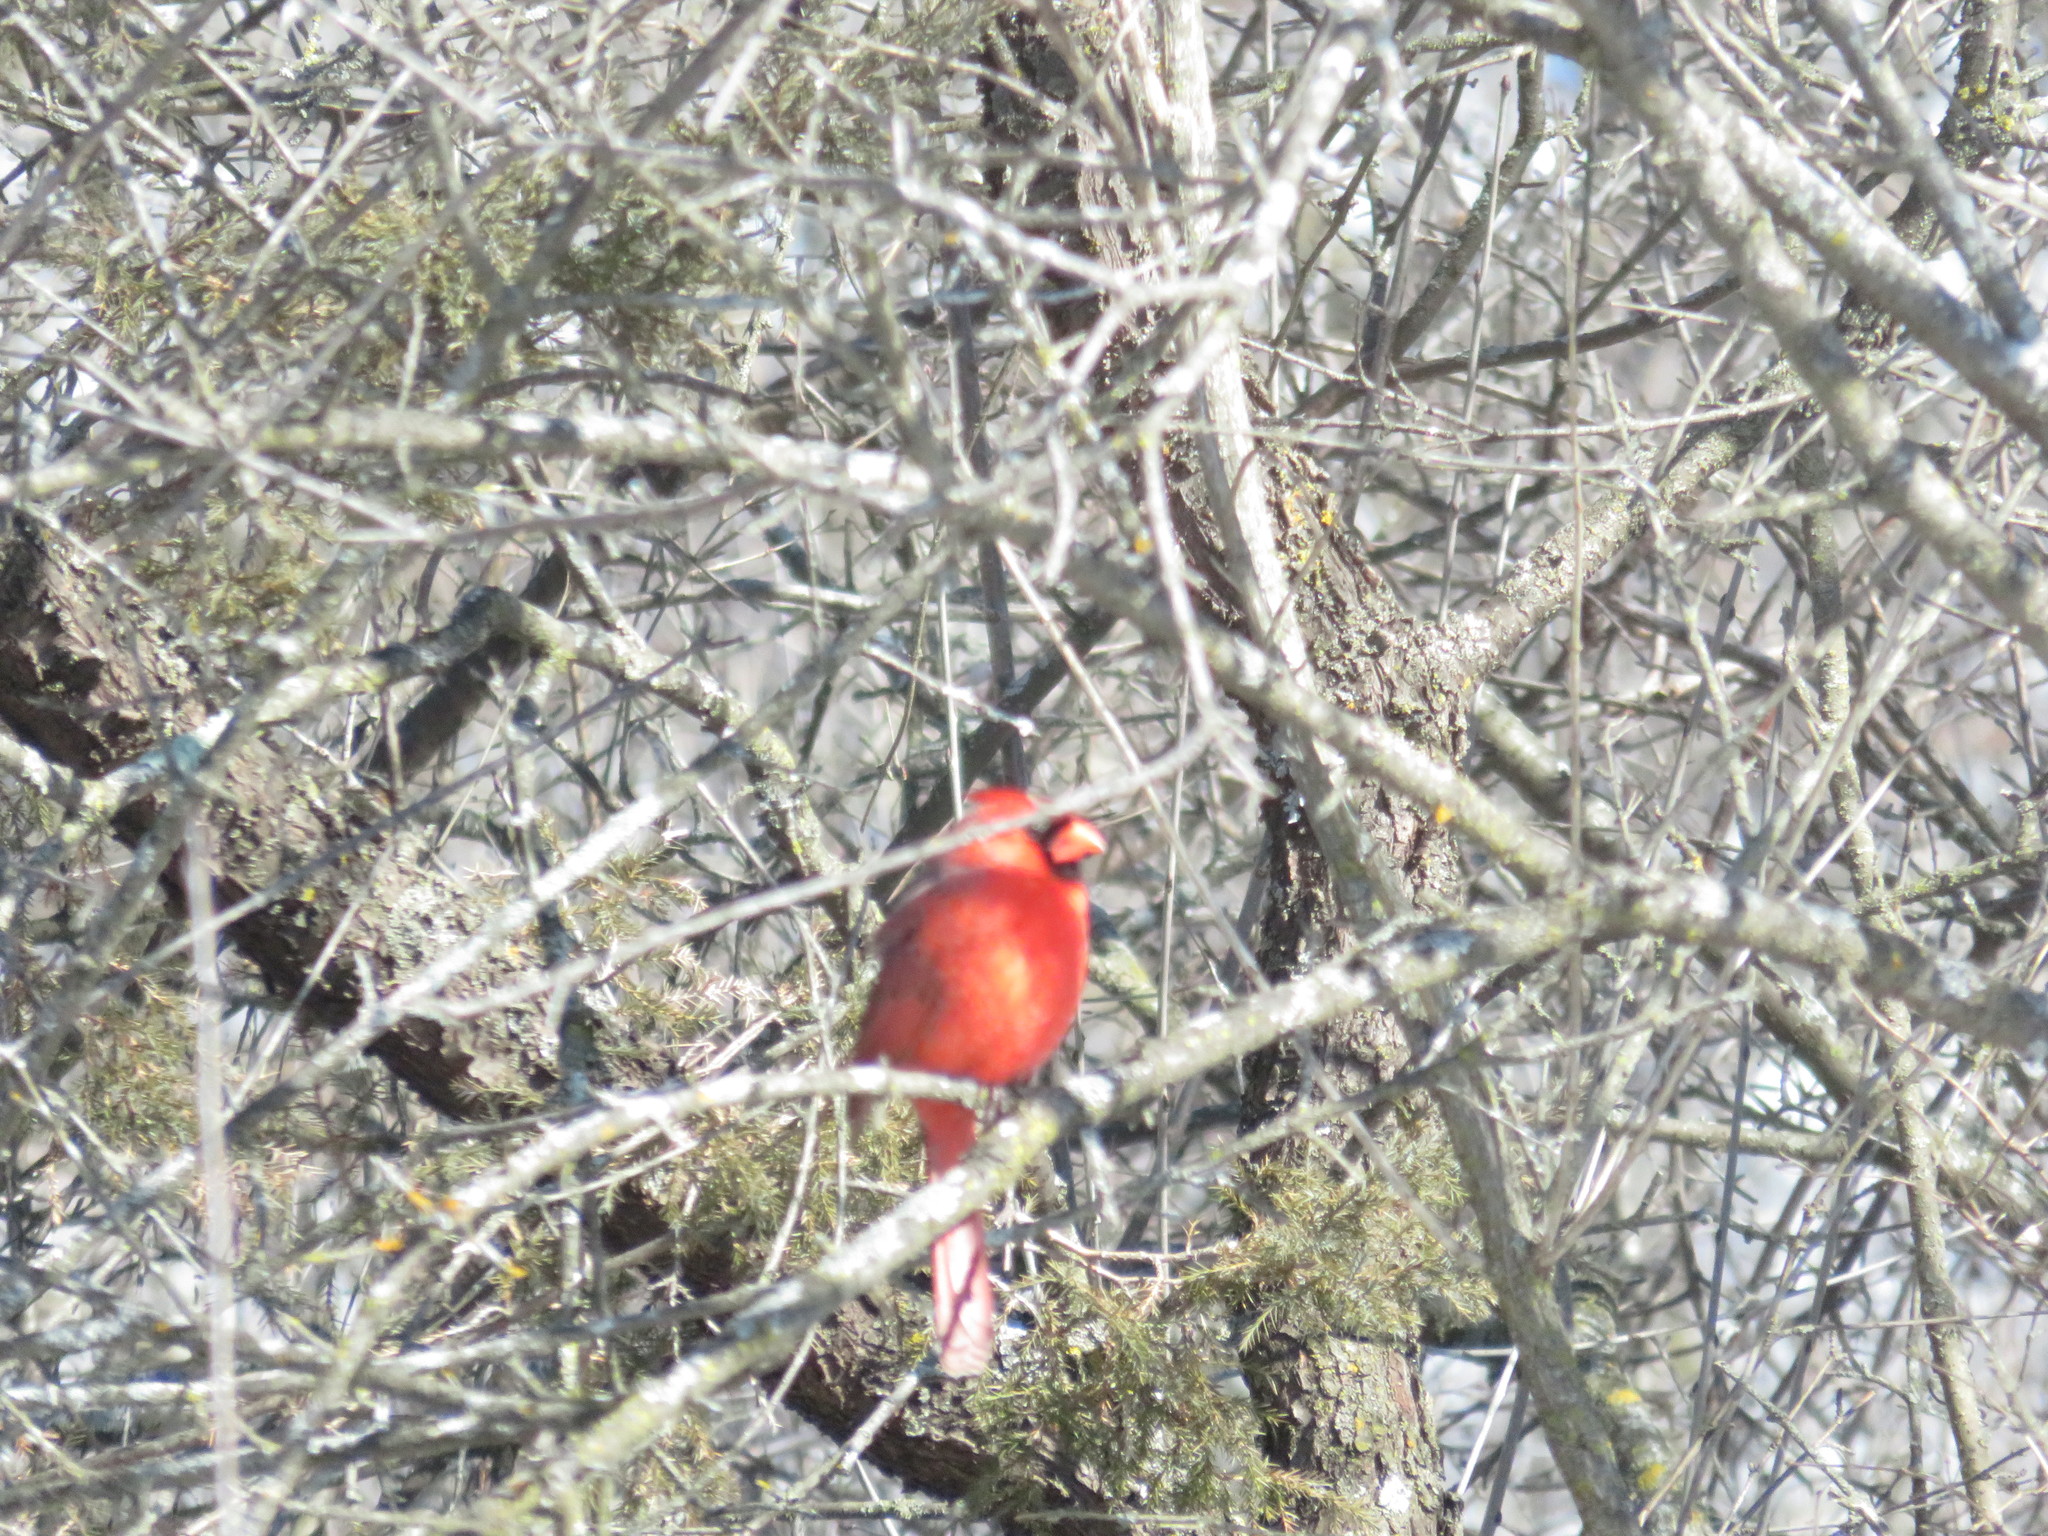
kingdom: Animalia
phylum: Chordata
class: Aves
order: Passeriformes
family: Cardinalidae
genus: Cardinalis
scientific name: Cardinalis cardinalis
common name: Northern cardinal
